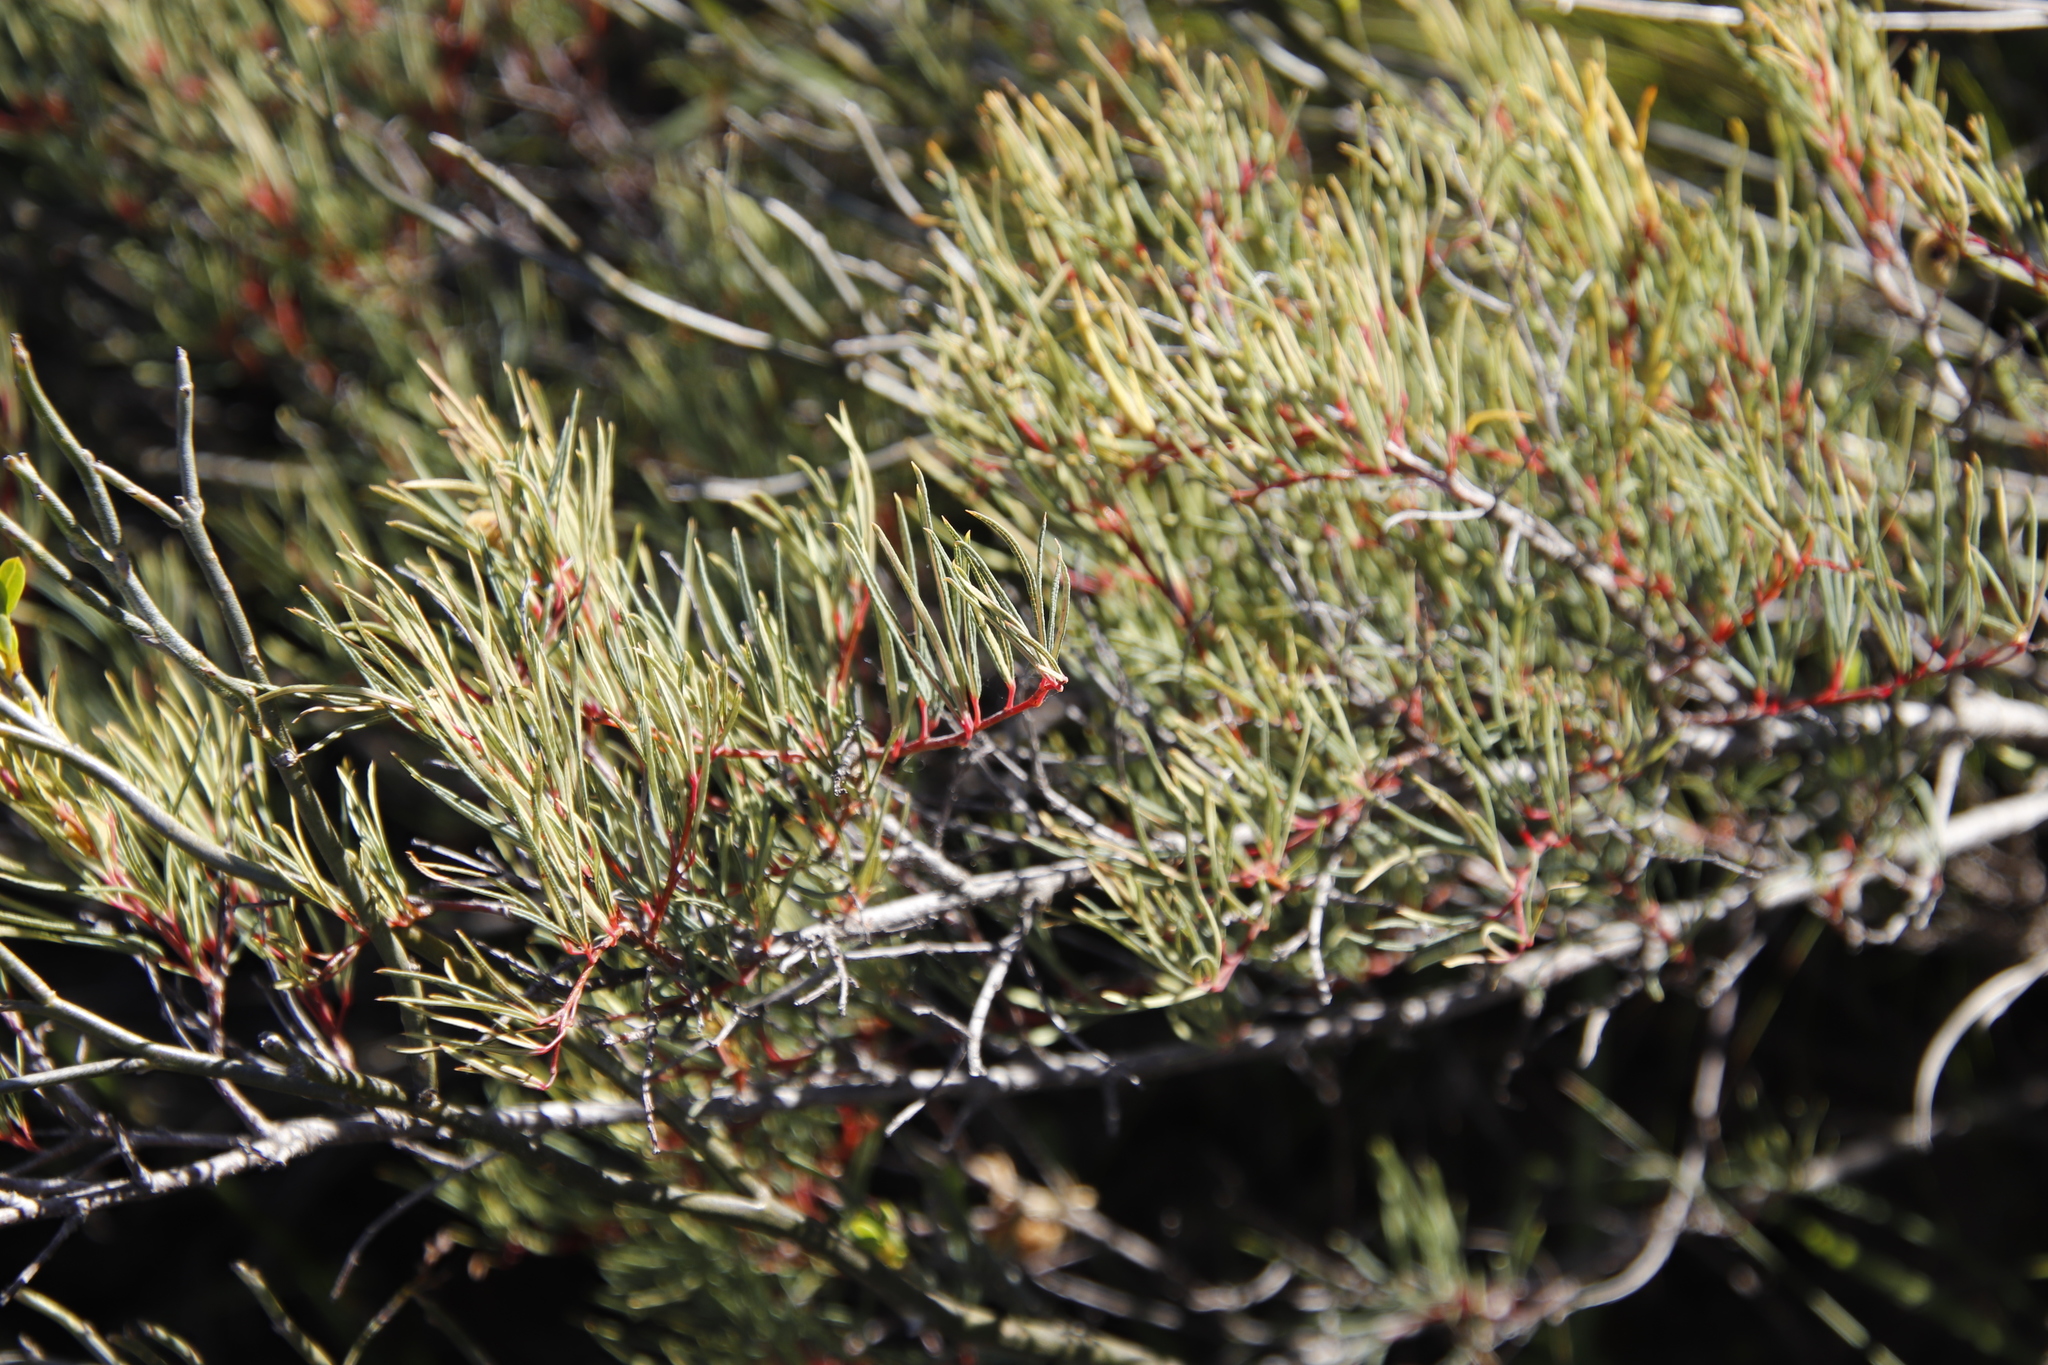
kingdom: Plantae
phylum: Tracheophyta
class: Magnoliopsida
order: Sapindales
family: Anacardiaceae
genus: Searsia
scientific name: Searsia rosmarinifolia
